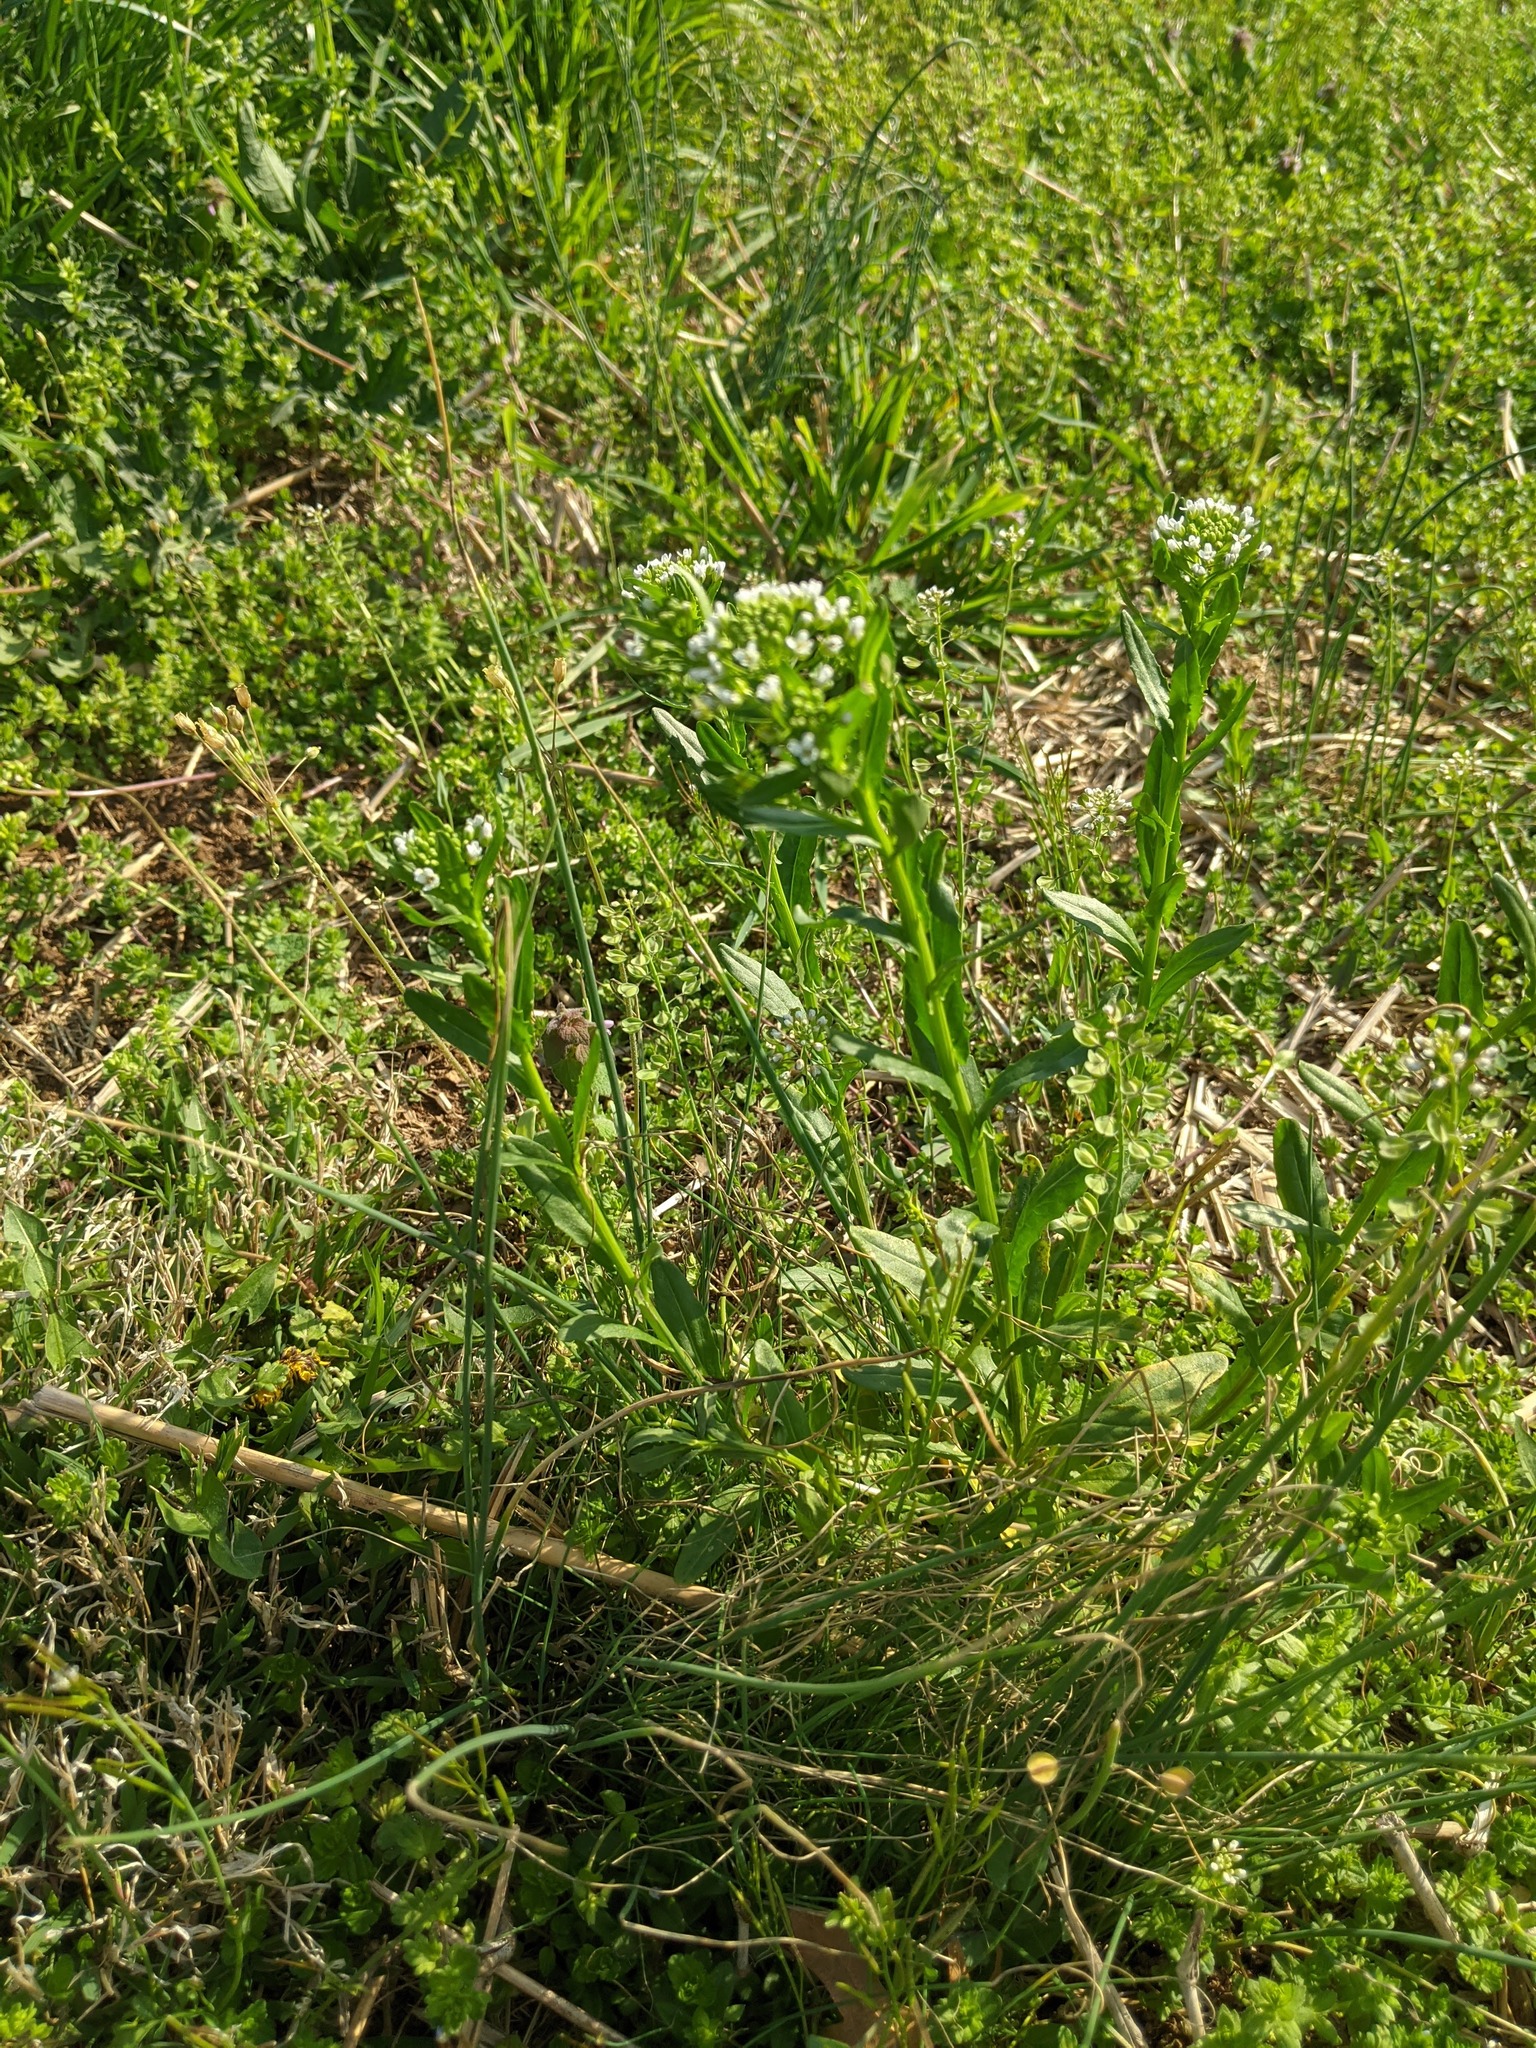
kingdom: Plantae
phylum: Tracheophyta
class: Magnoliopsida
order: Brassicales
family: Brassicaceae
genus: Thlaspi
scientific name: Thlaspi arvense
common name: Field pennycress
